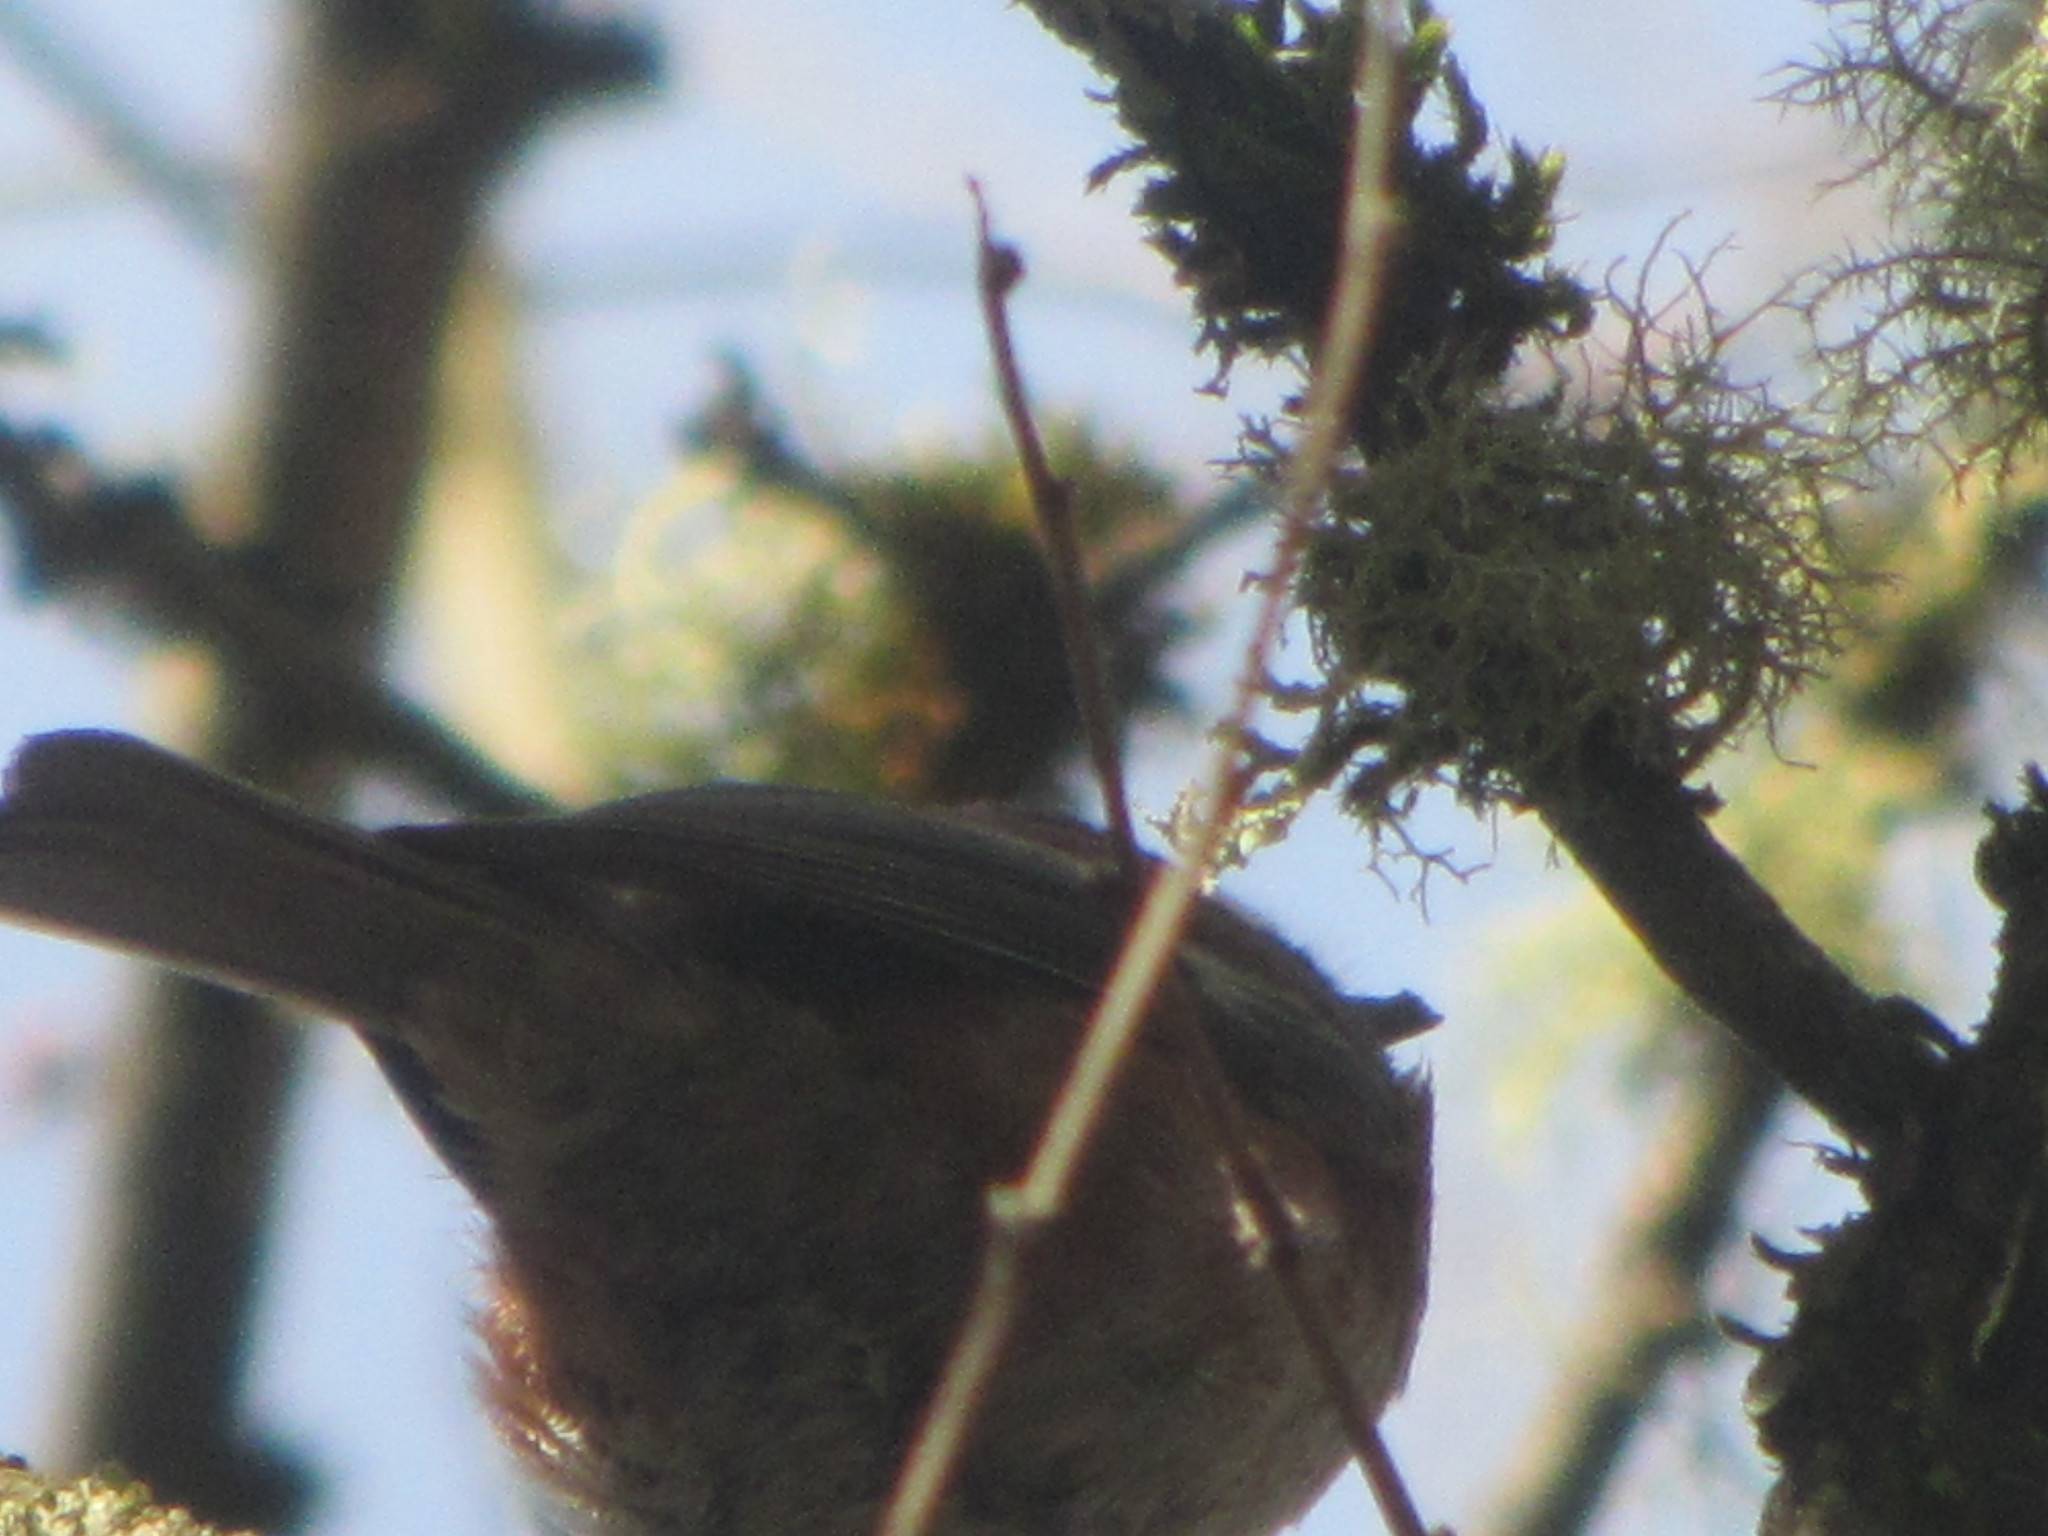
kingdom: Animalia
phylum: Chordata
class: Aves
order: Passeriformes
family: Paridae
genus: Poecile
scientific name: Poecile atricapillus
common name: Black-capped chickadee
